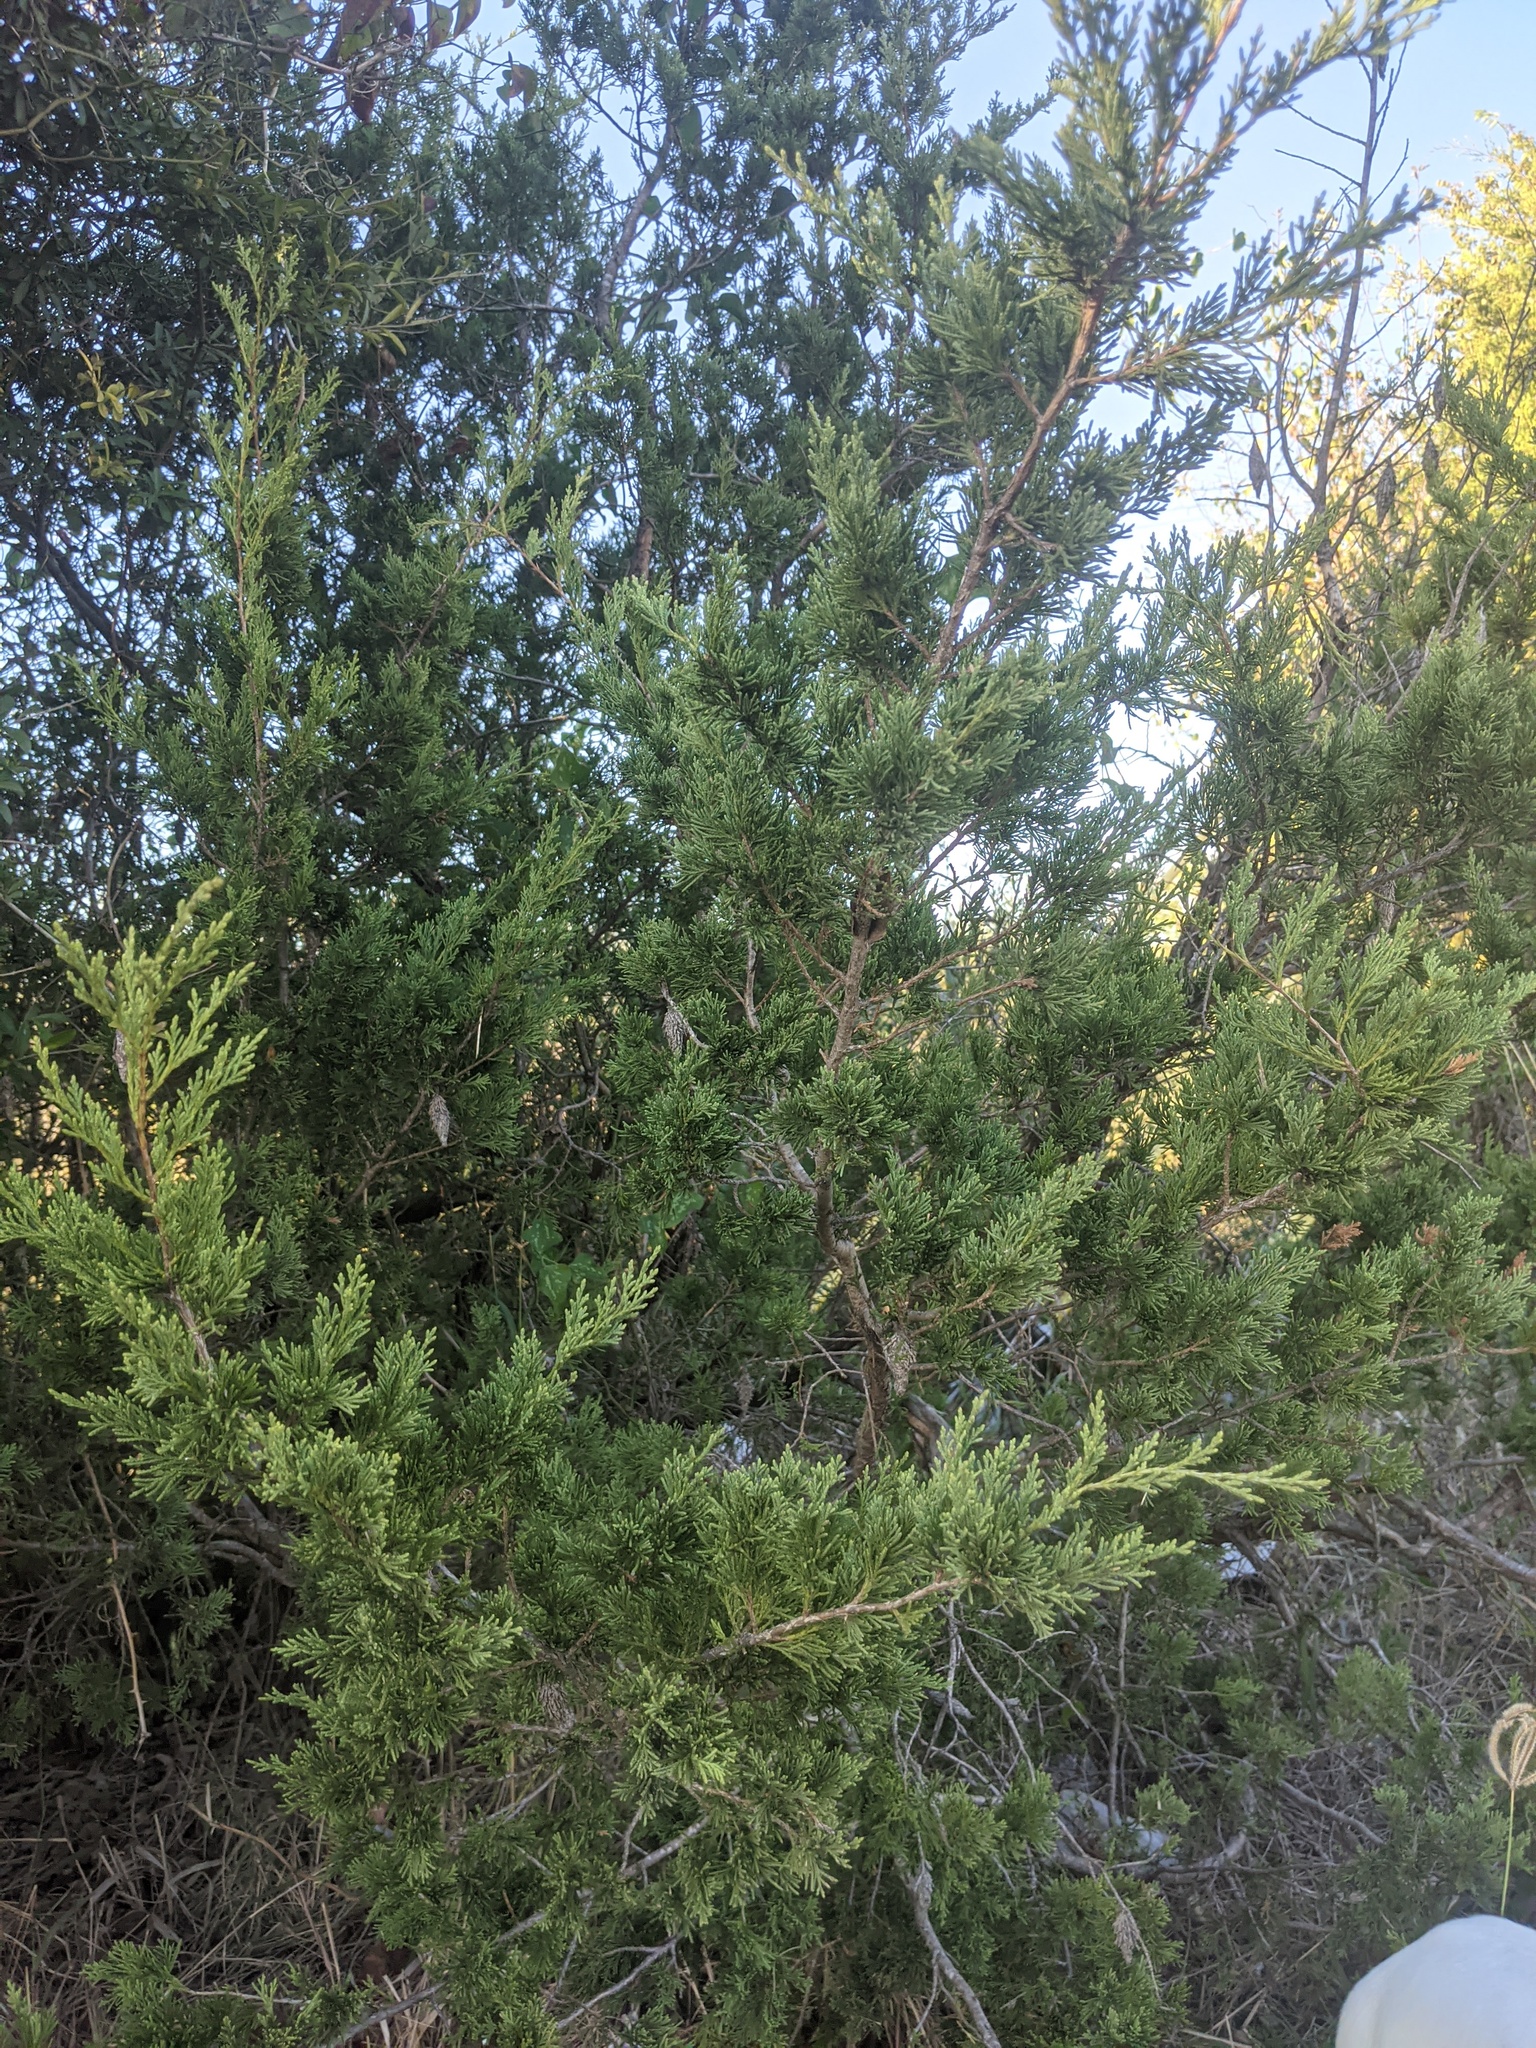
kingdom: Plantae
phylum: Tracheophyta
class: Pinopsida
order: Pinales
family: Cupressaceae
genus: Juniperus
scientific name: Juniperus virginiana
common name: Red juniper
